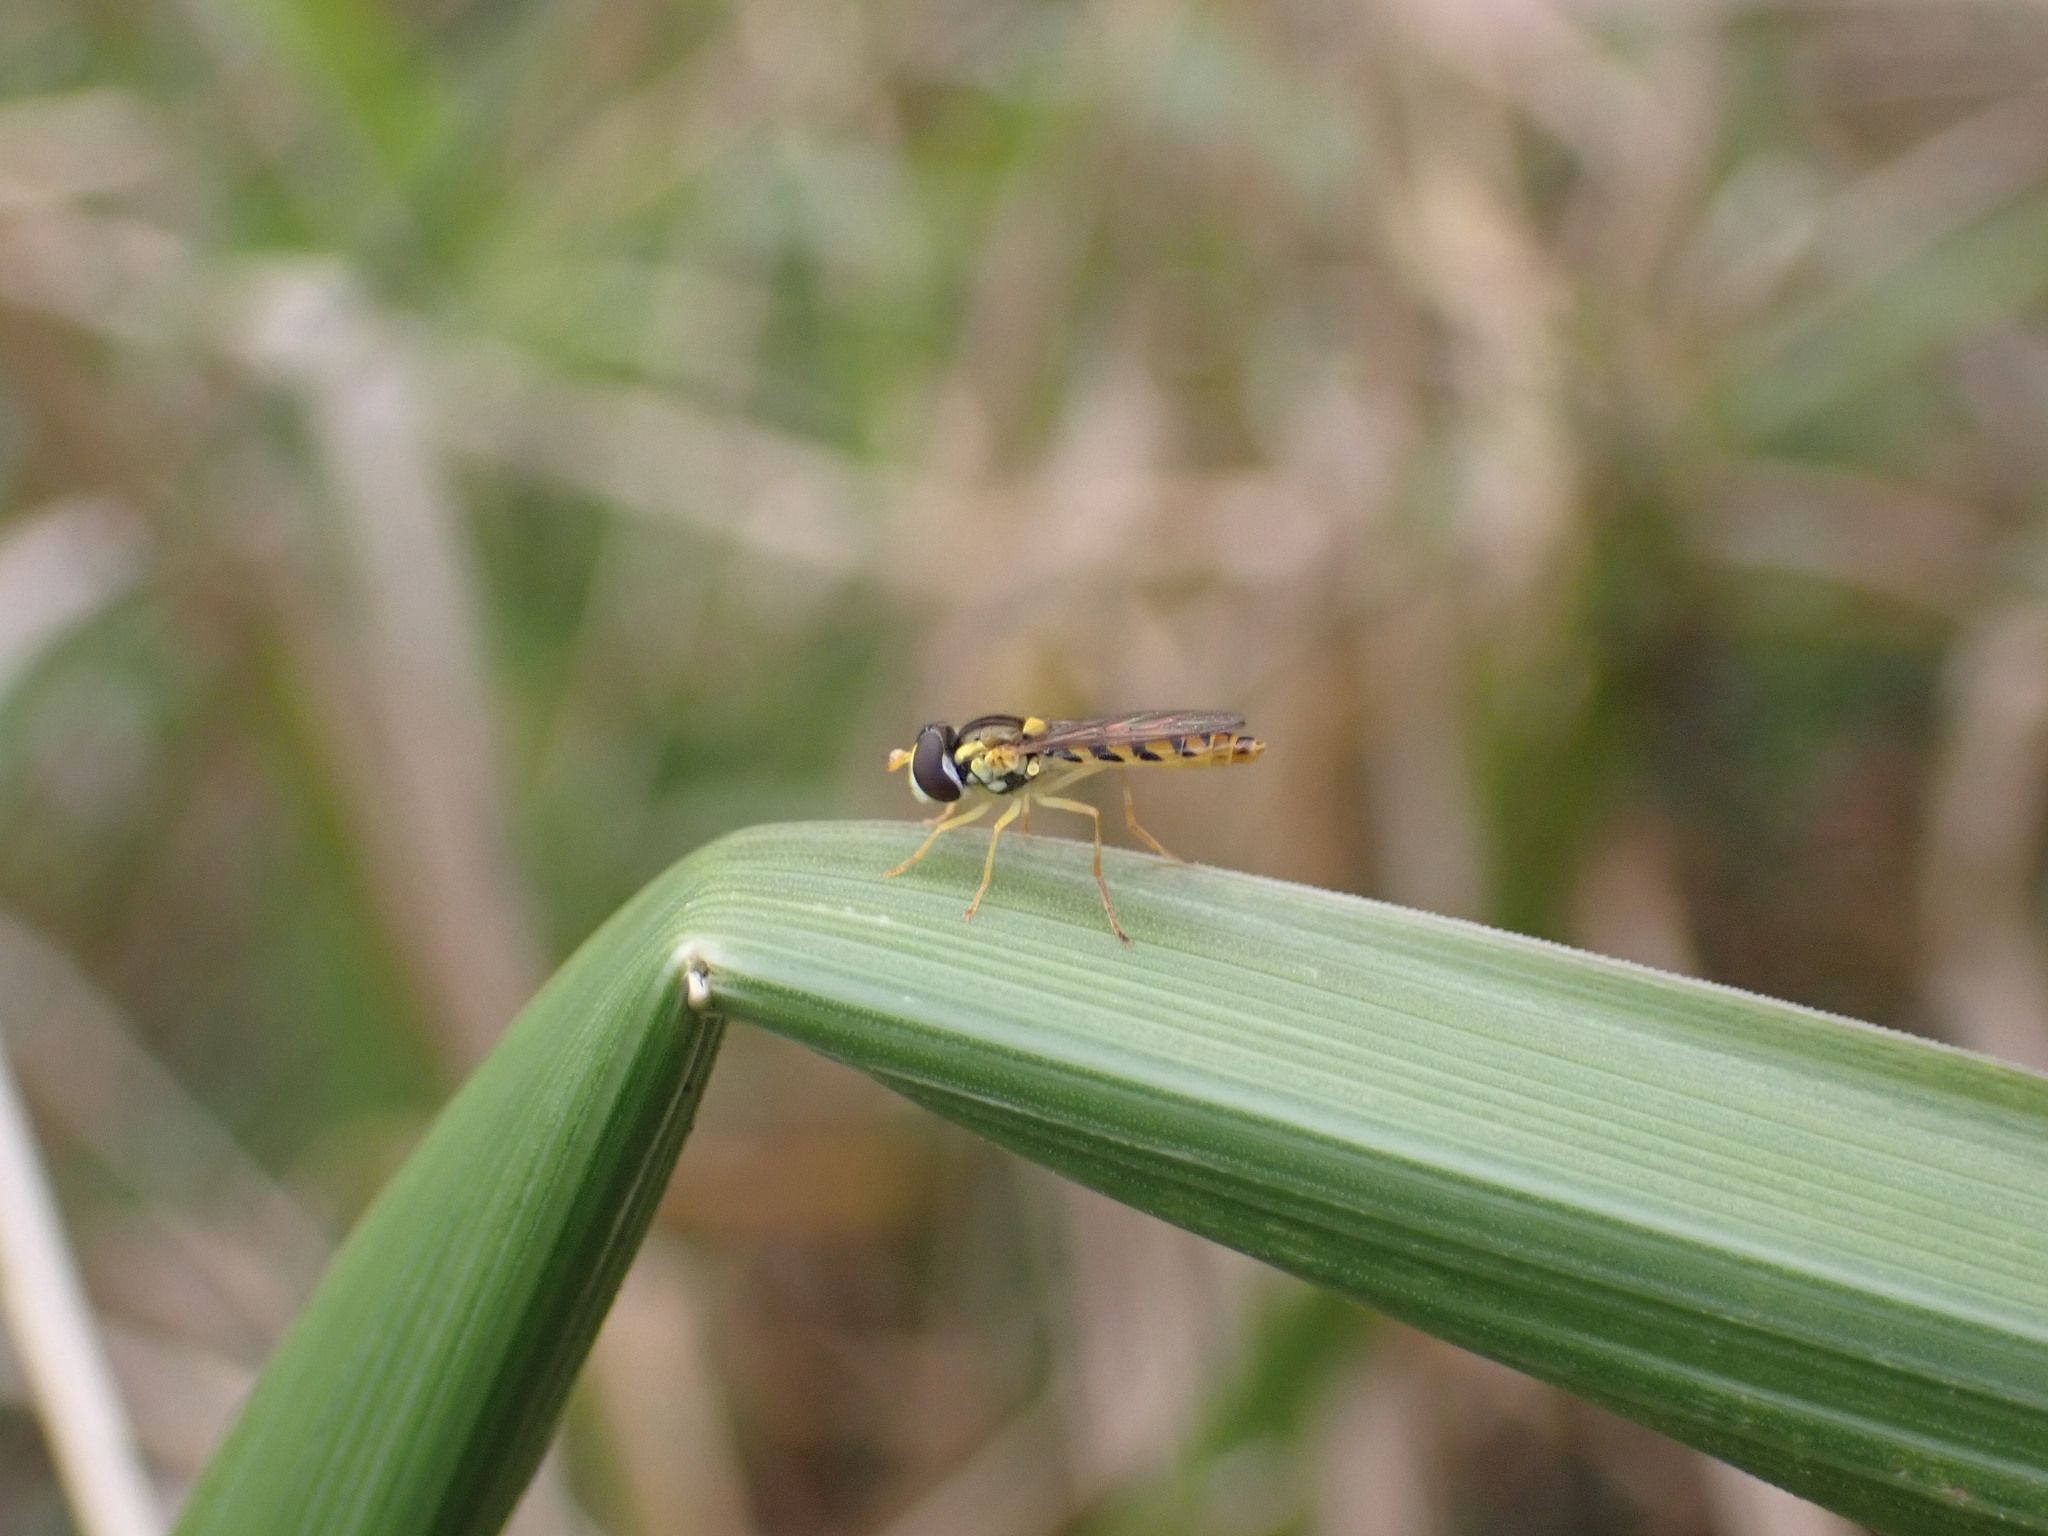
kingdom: Animalia
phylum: Arthropoda
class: Insecta
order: Diptera
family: Syrphidae
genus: Sphaerophoria
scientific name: Sphaerophoria macrogaster
